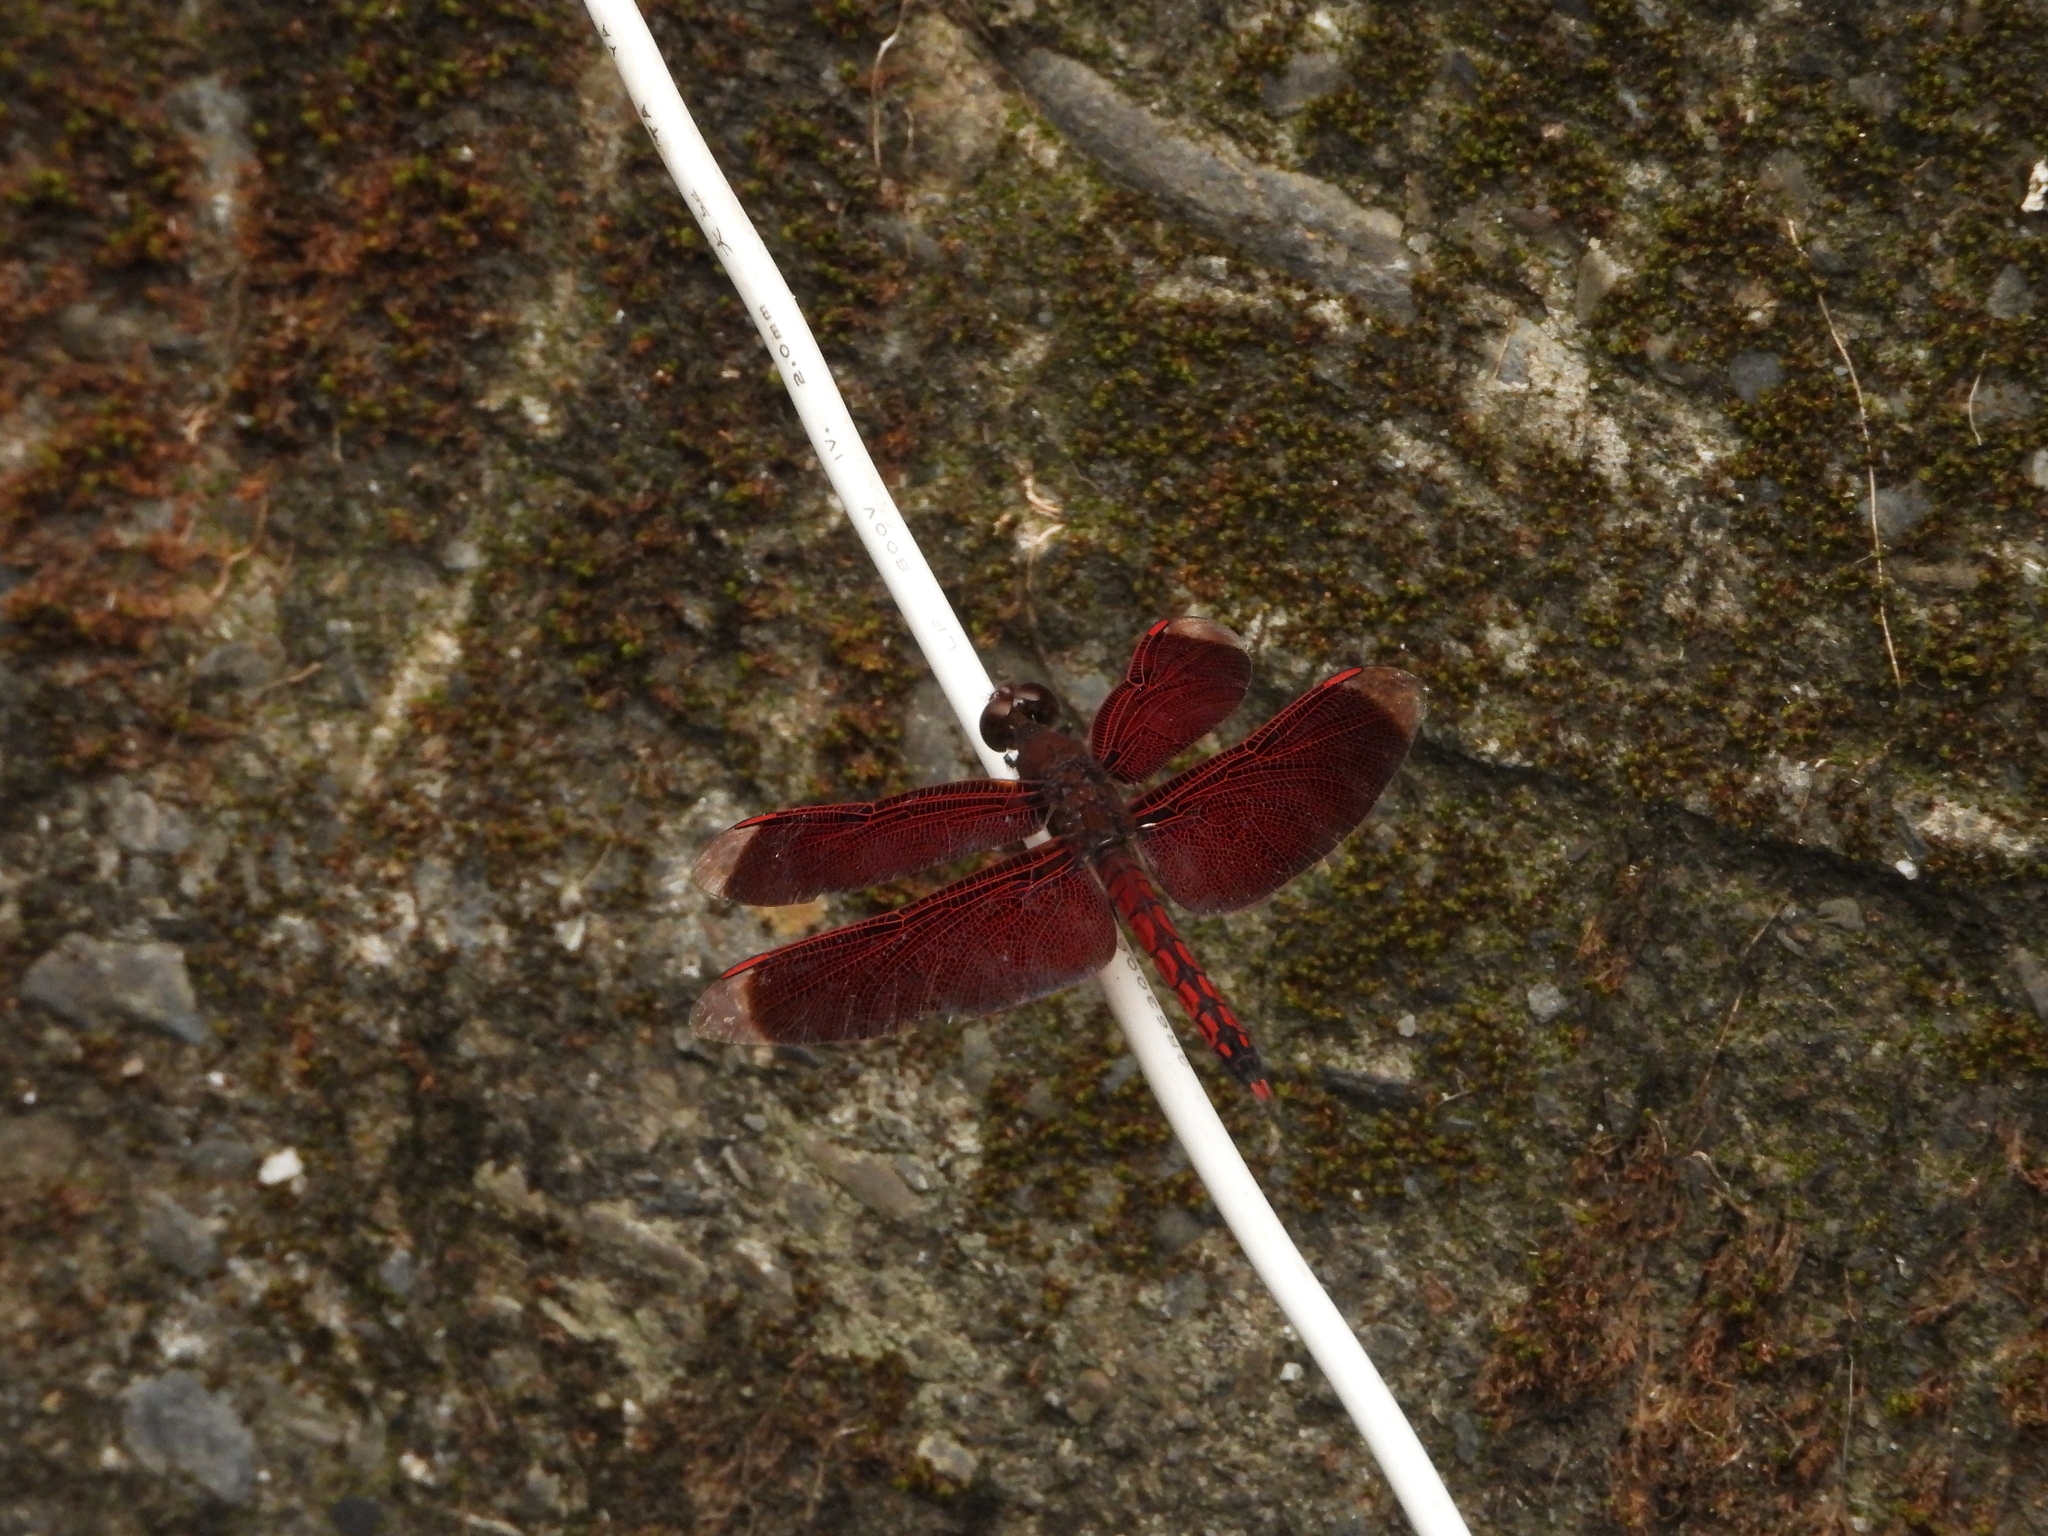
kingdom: Animalia
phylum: Arthropoda
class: Insecta
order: Odonata
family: Libellulidae
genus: Neurothemis
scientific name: Neurothemis taiwanensis
